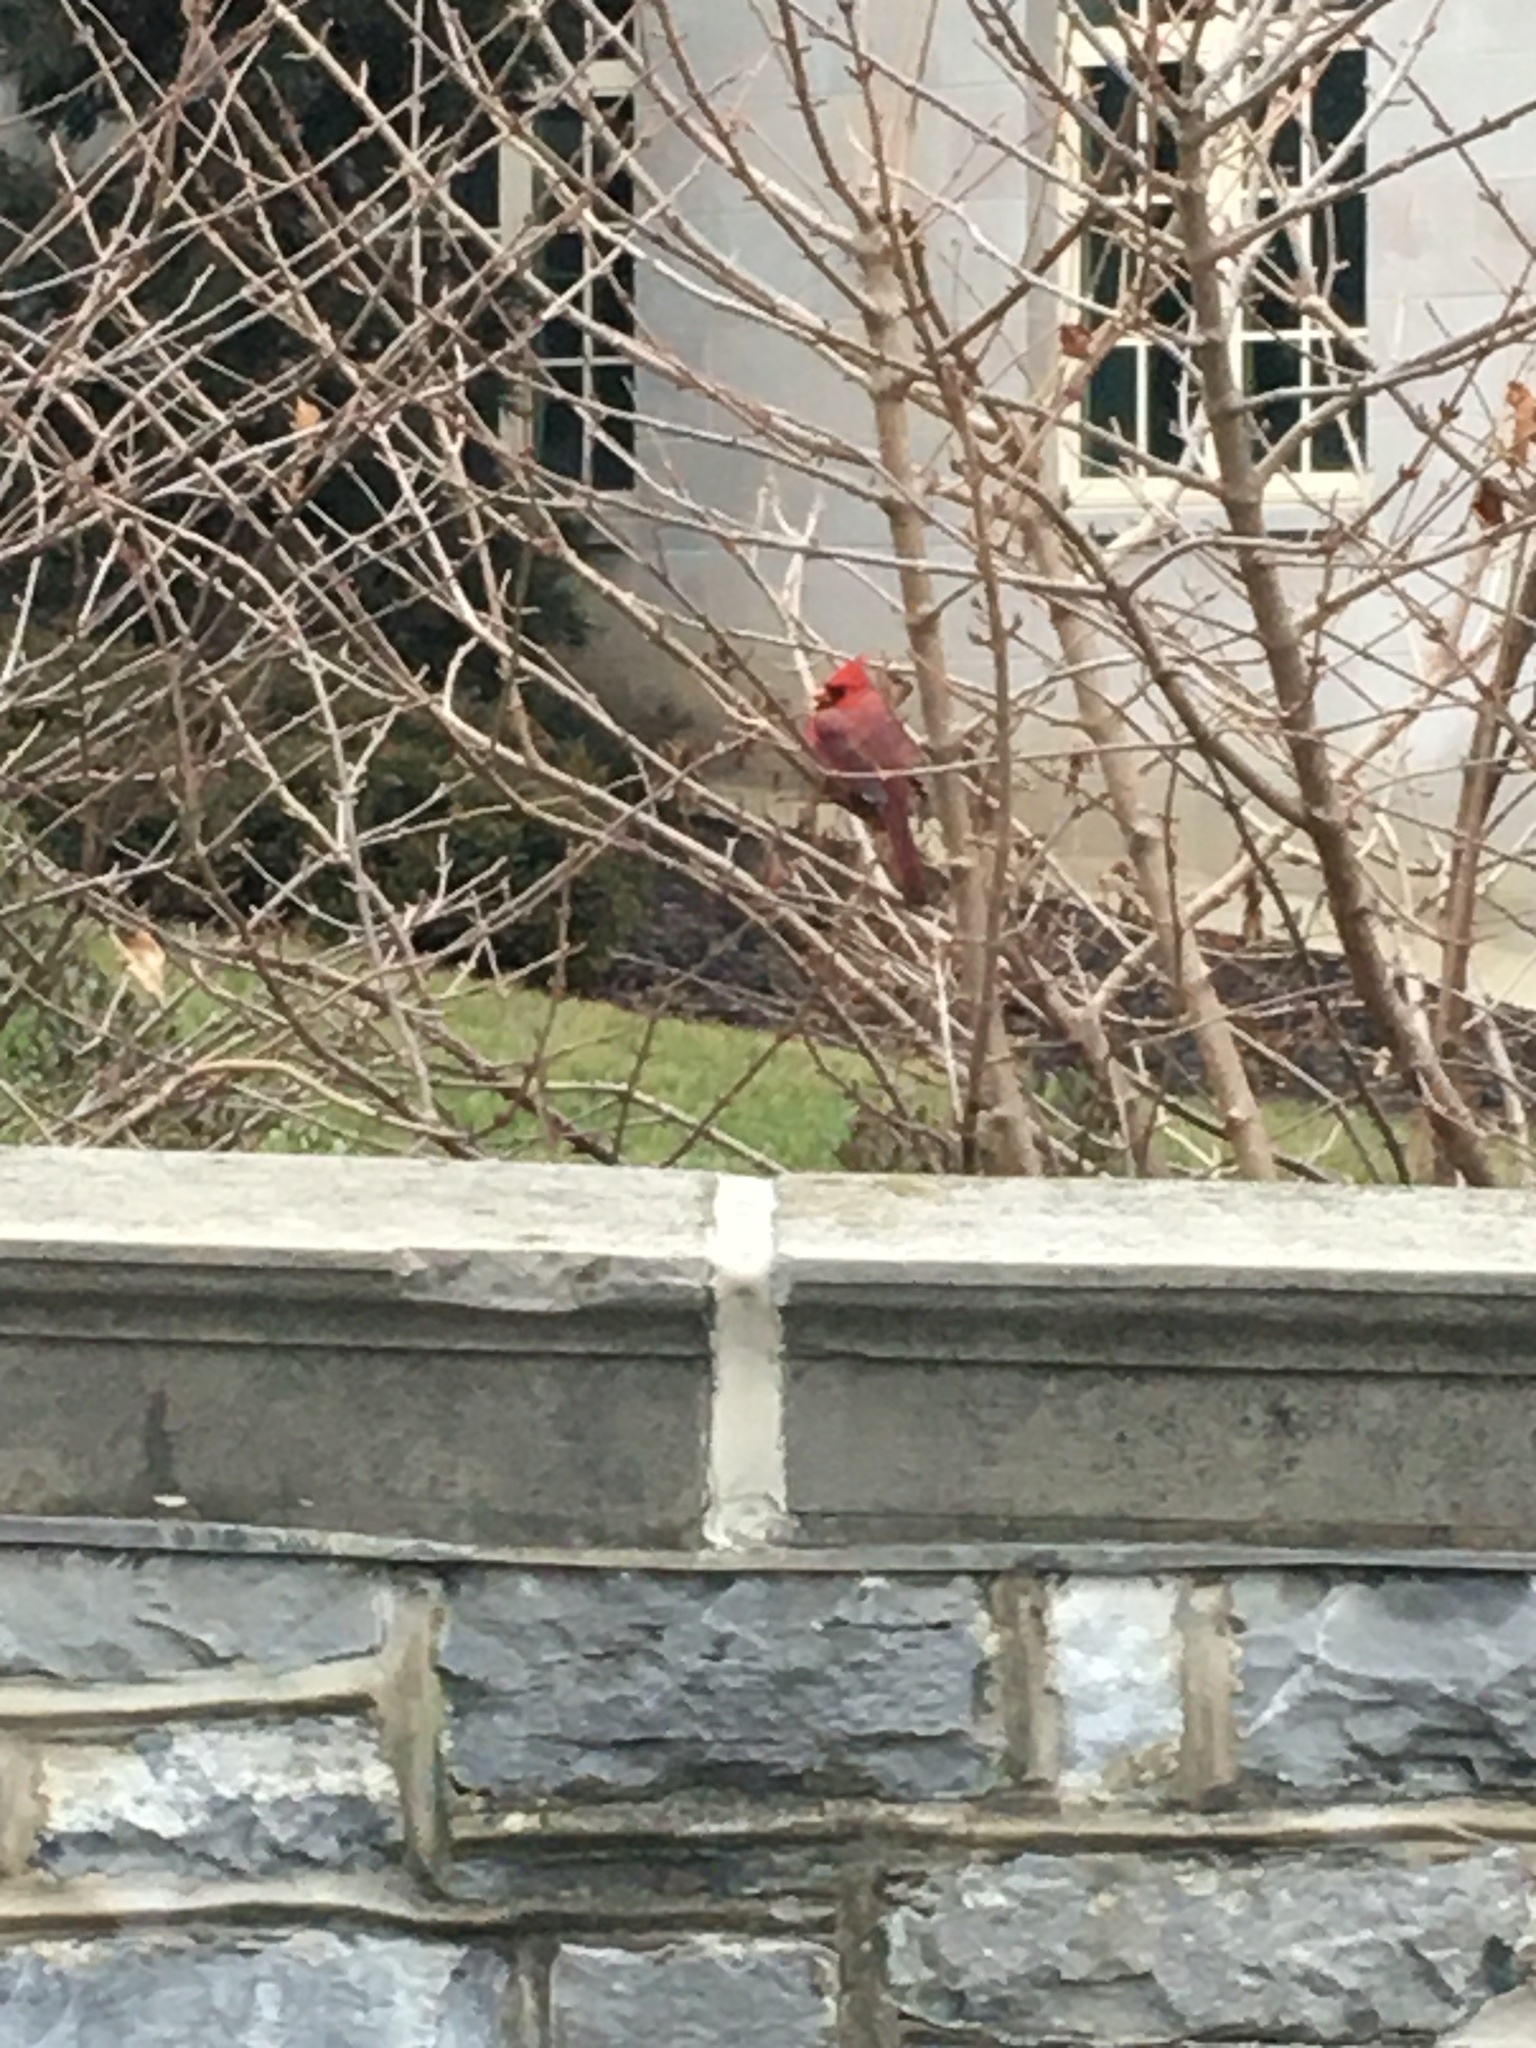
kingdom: Animalia
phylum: Chordata
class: Aves
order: Passeriformes
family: Cardinalidae
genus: Cardinalis
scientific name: Cardinalis cardinalis
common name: Northern cardinal
